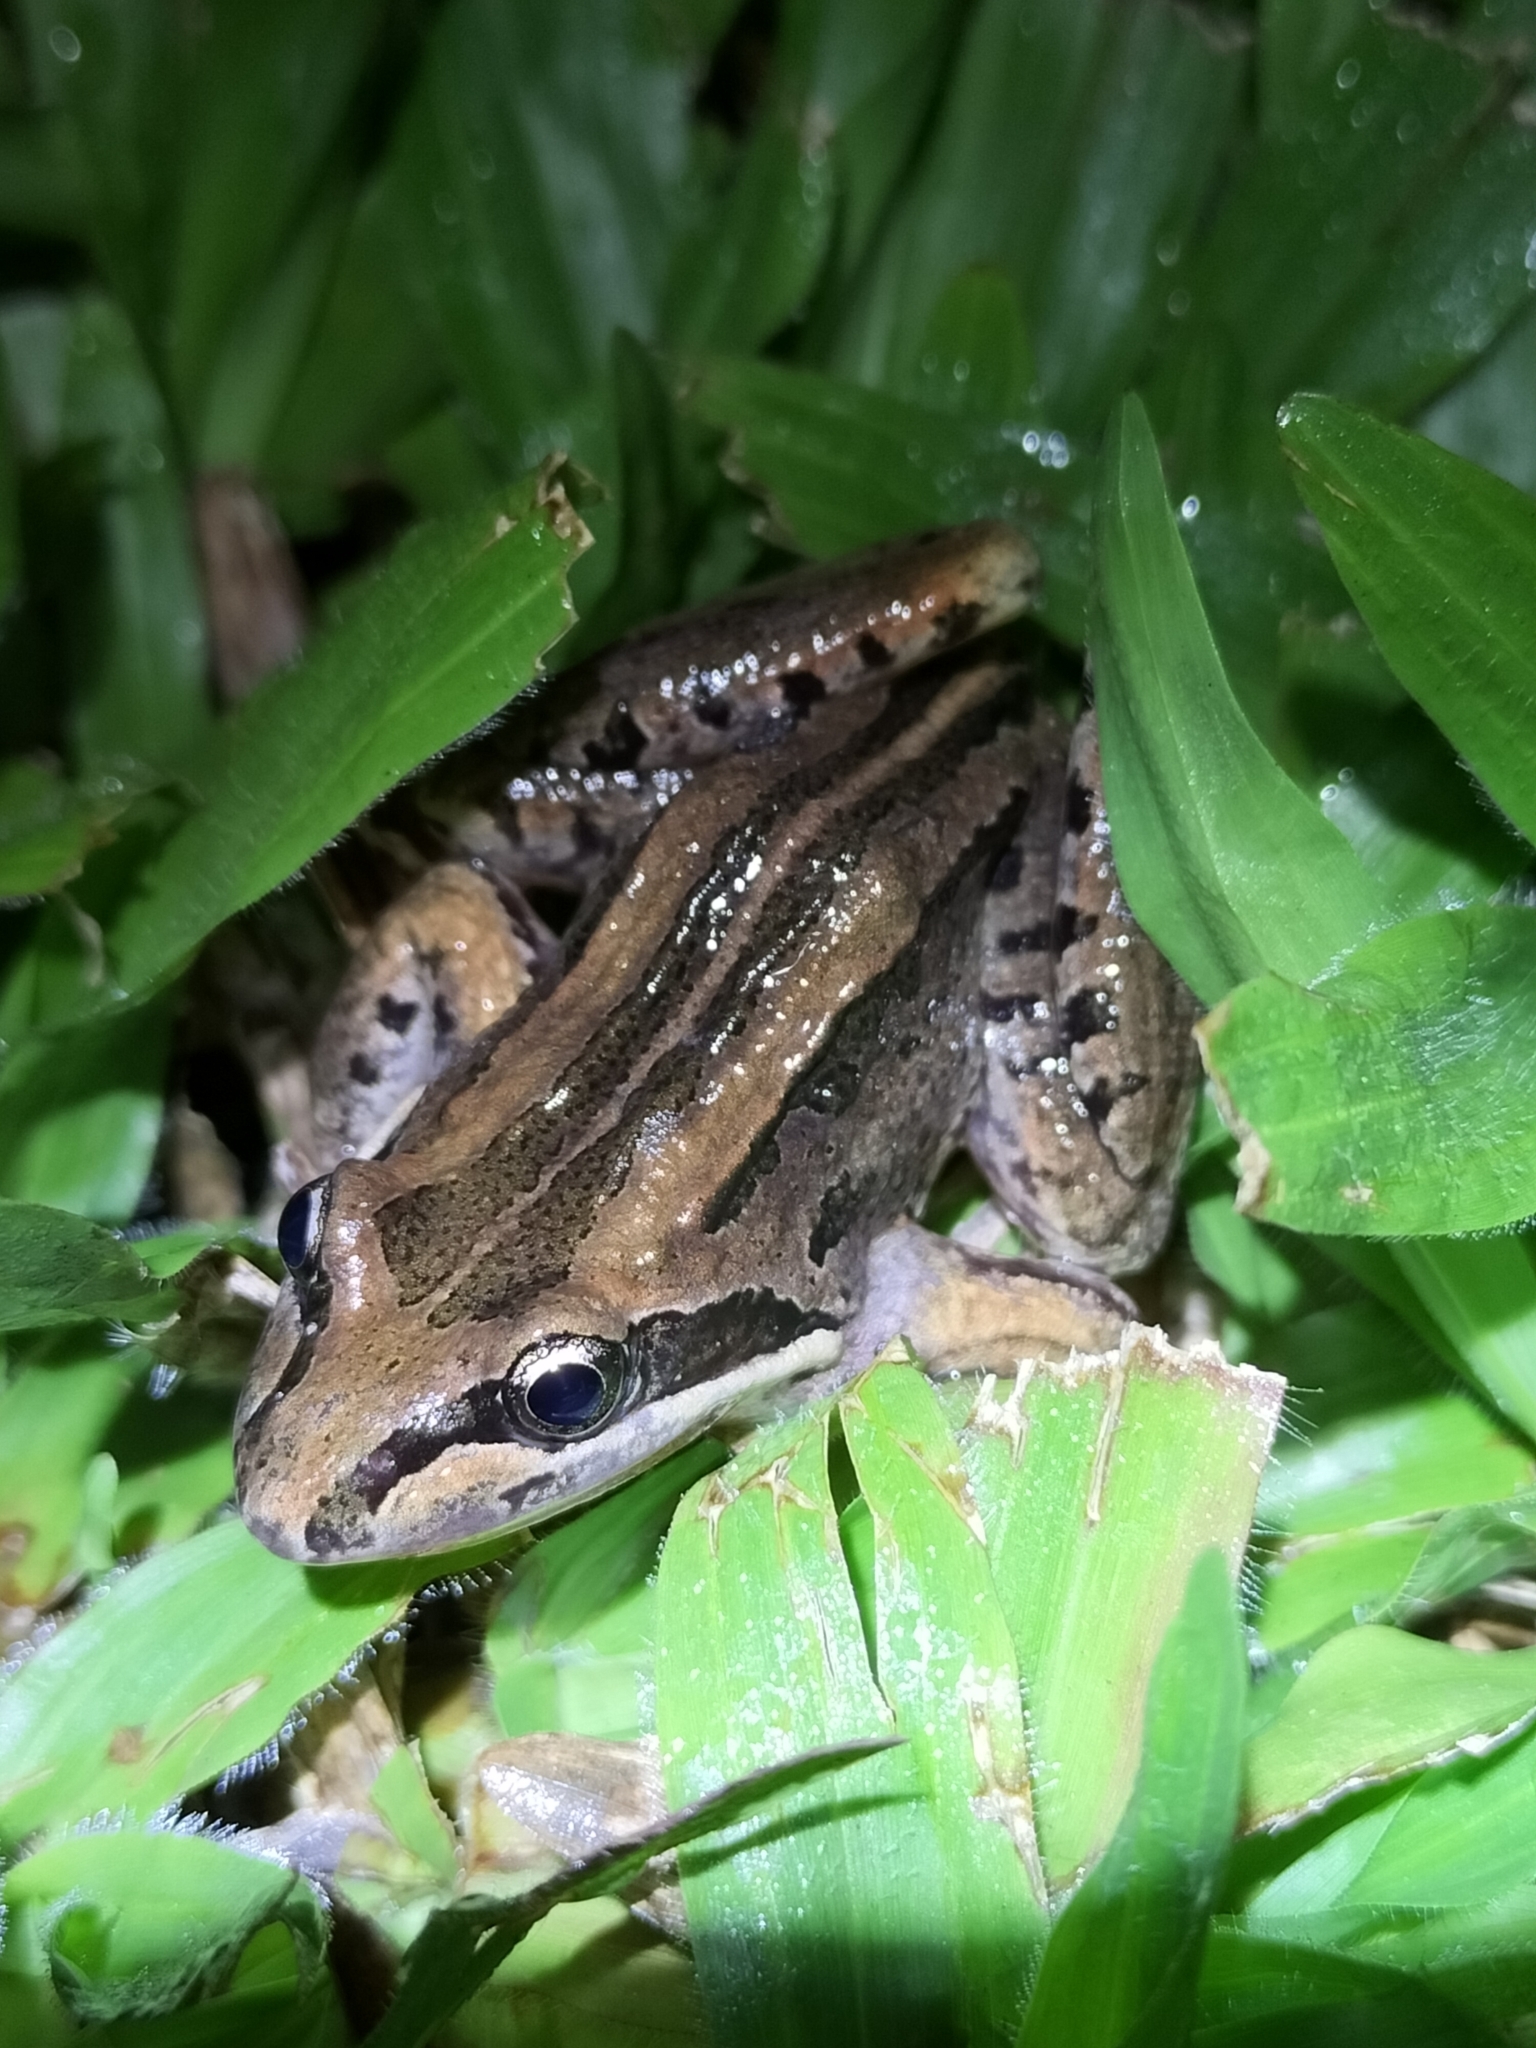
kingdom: Animalia
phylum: Chordata
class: Amphibia
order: Anura
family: Limnodynastidae
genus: Limnodynastes
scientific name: Limnodynastes peronii
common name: Brown frog
